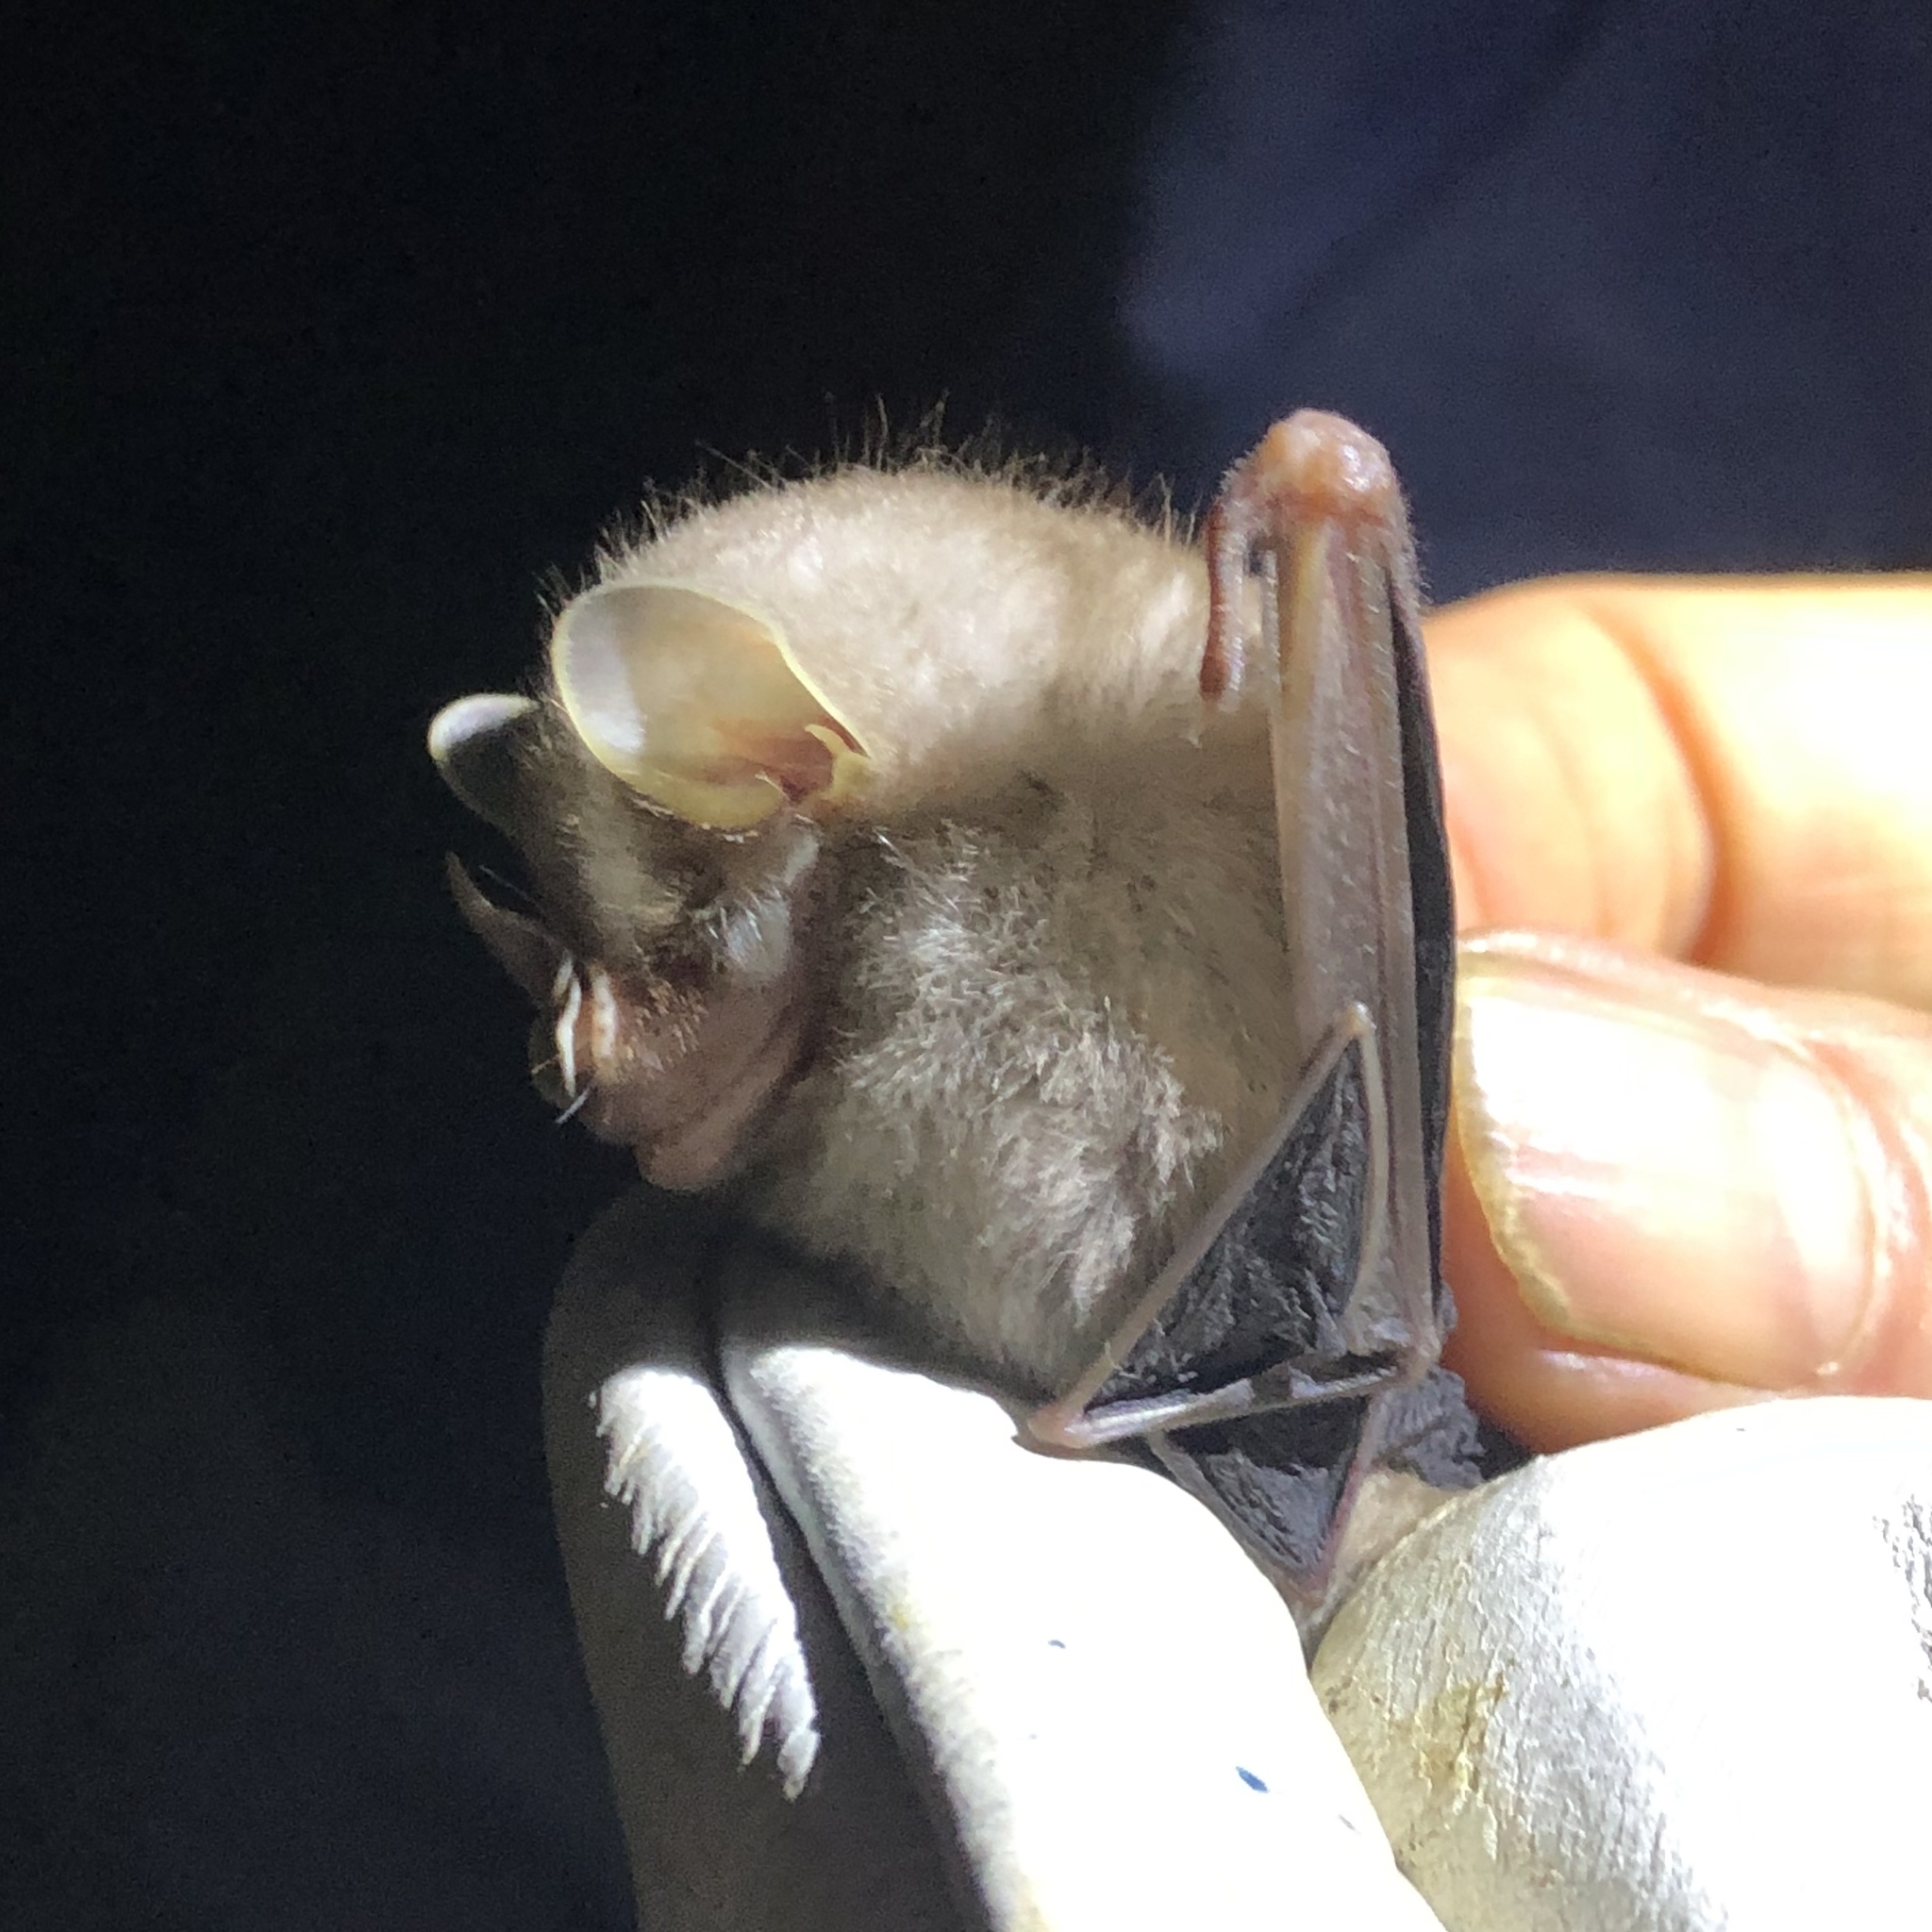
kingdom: Animalia
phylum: Chordata
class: Mammalia
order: Chiroptera
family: Phyllostomidae
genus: Vampyressa
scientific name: Vampyressa thyone
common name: Northern little yellow-eared bat
